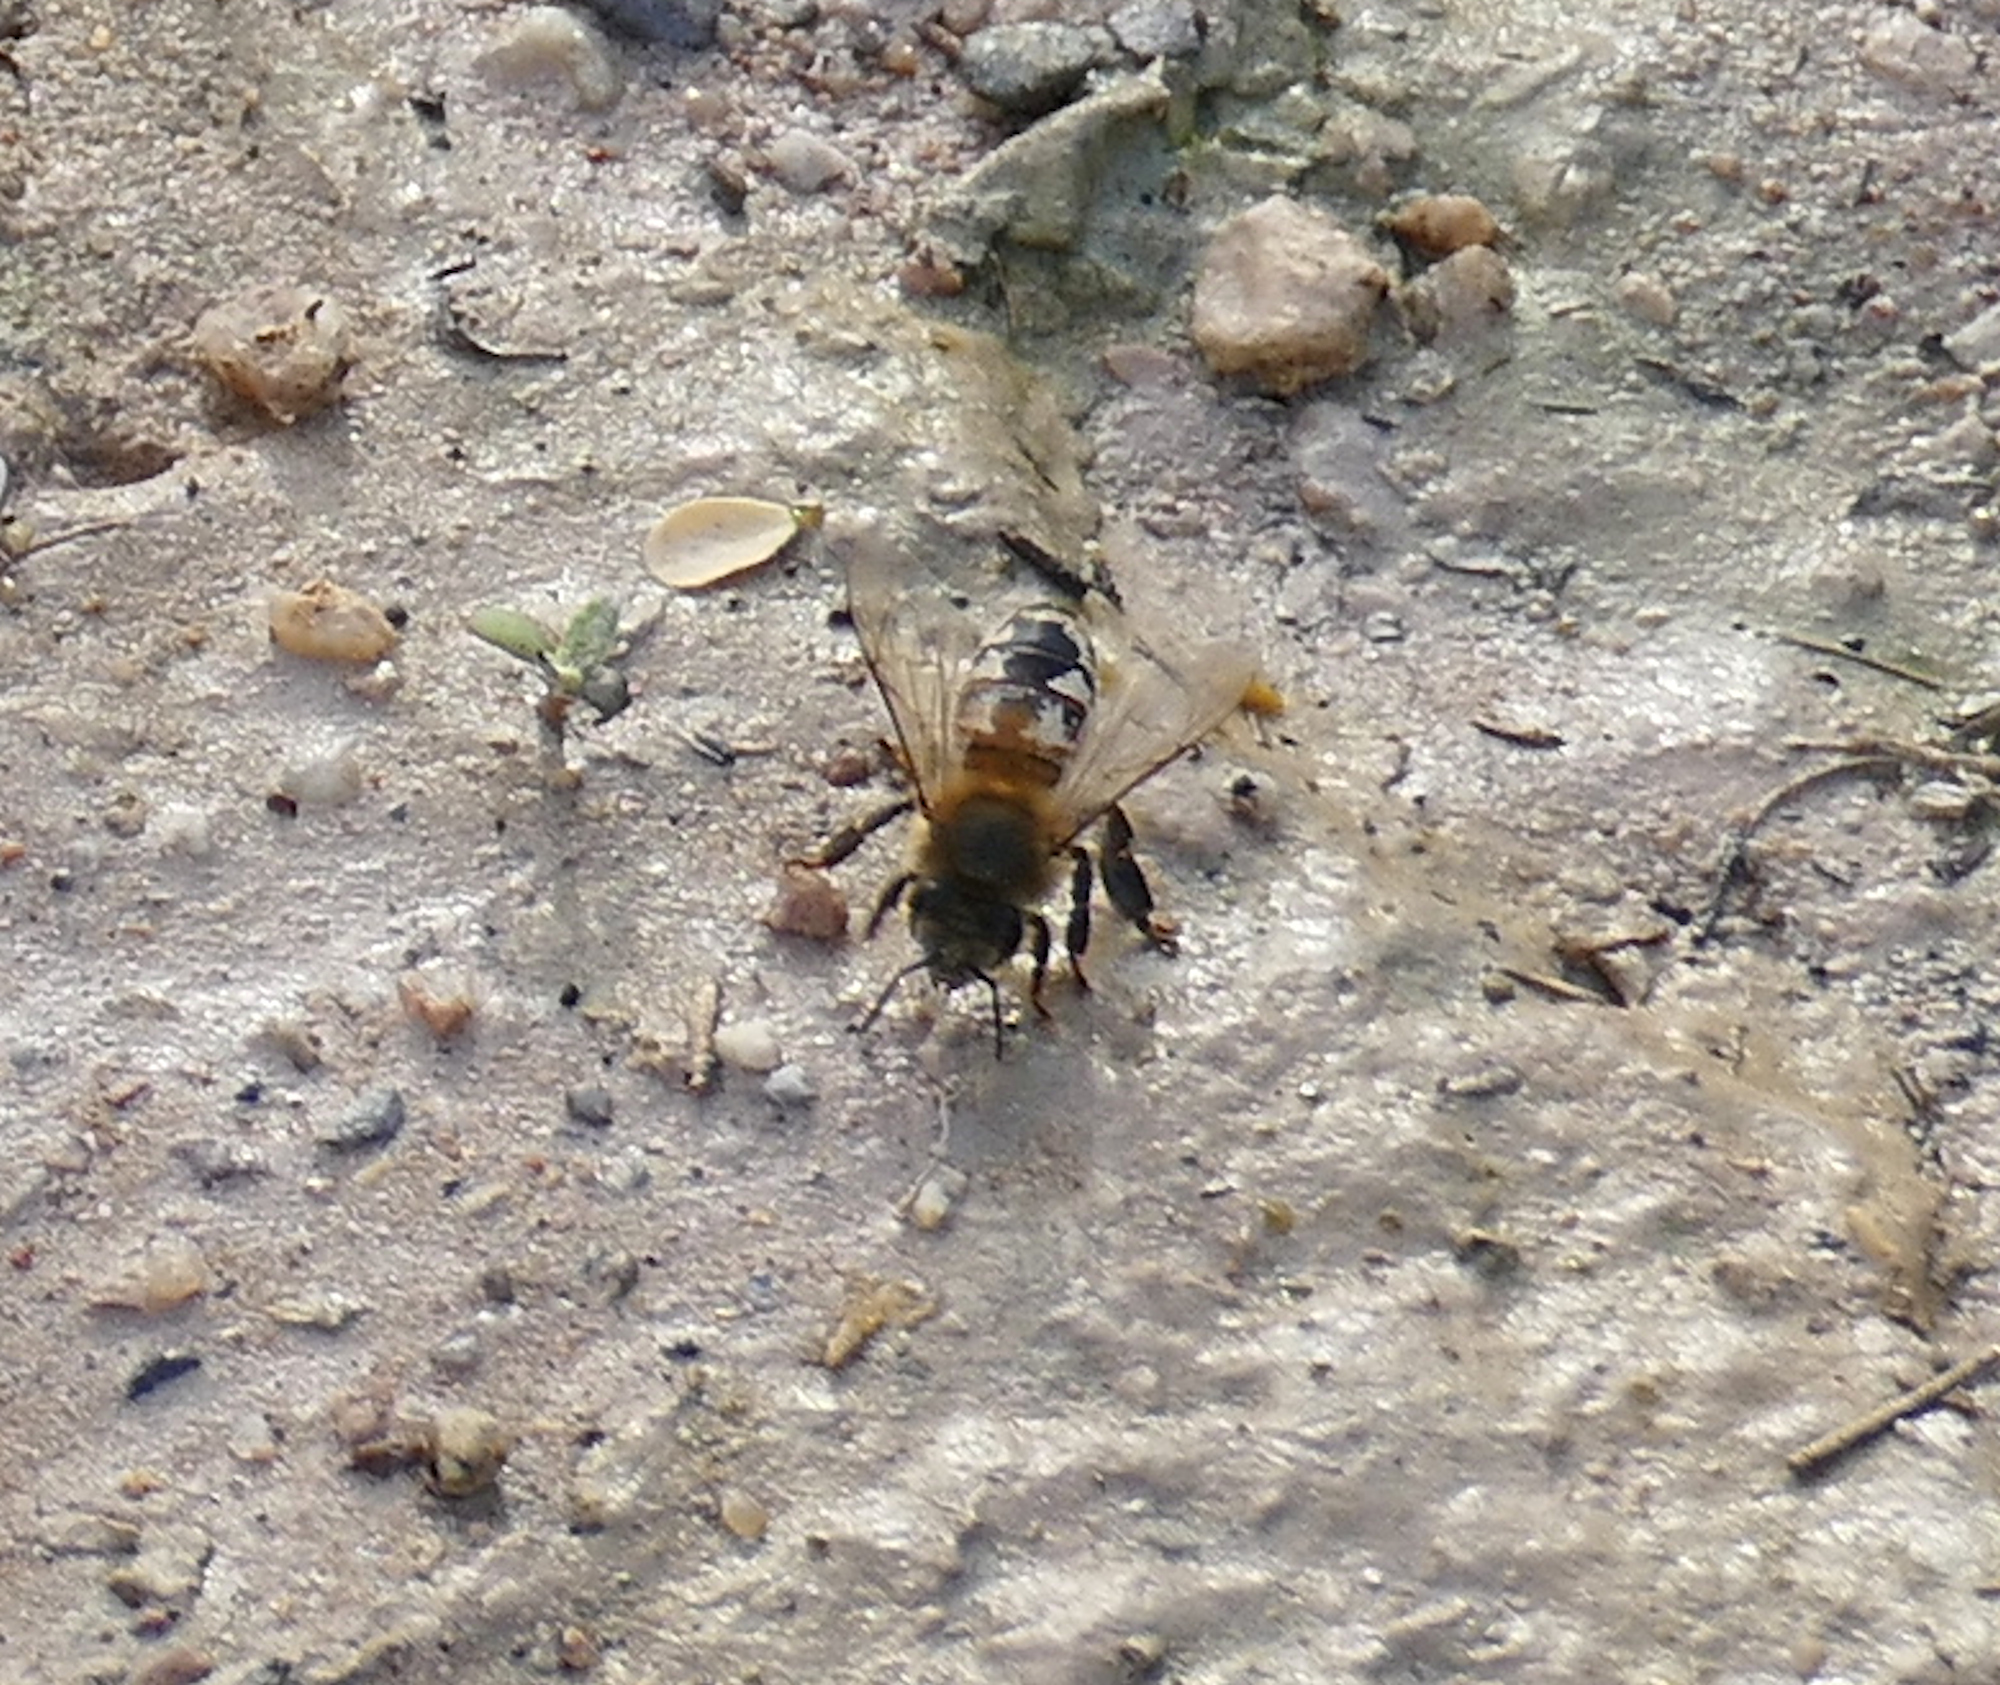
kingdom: Animalia
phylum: Arthropoda
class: Insecta
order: Hymenoptera
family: Apidae
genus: Apis
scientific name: Apis mellifera
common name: Honey bee
